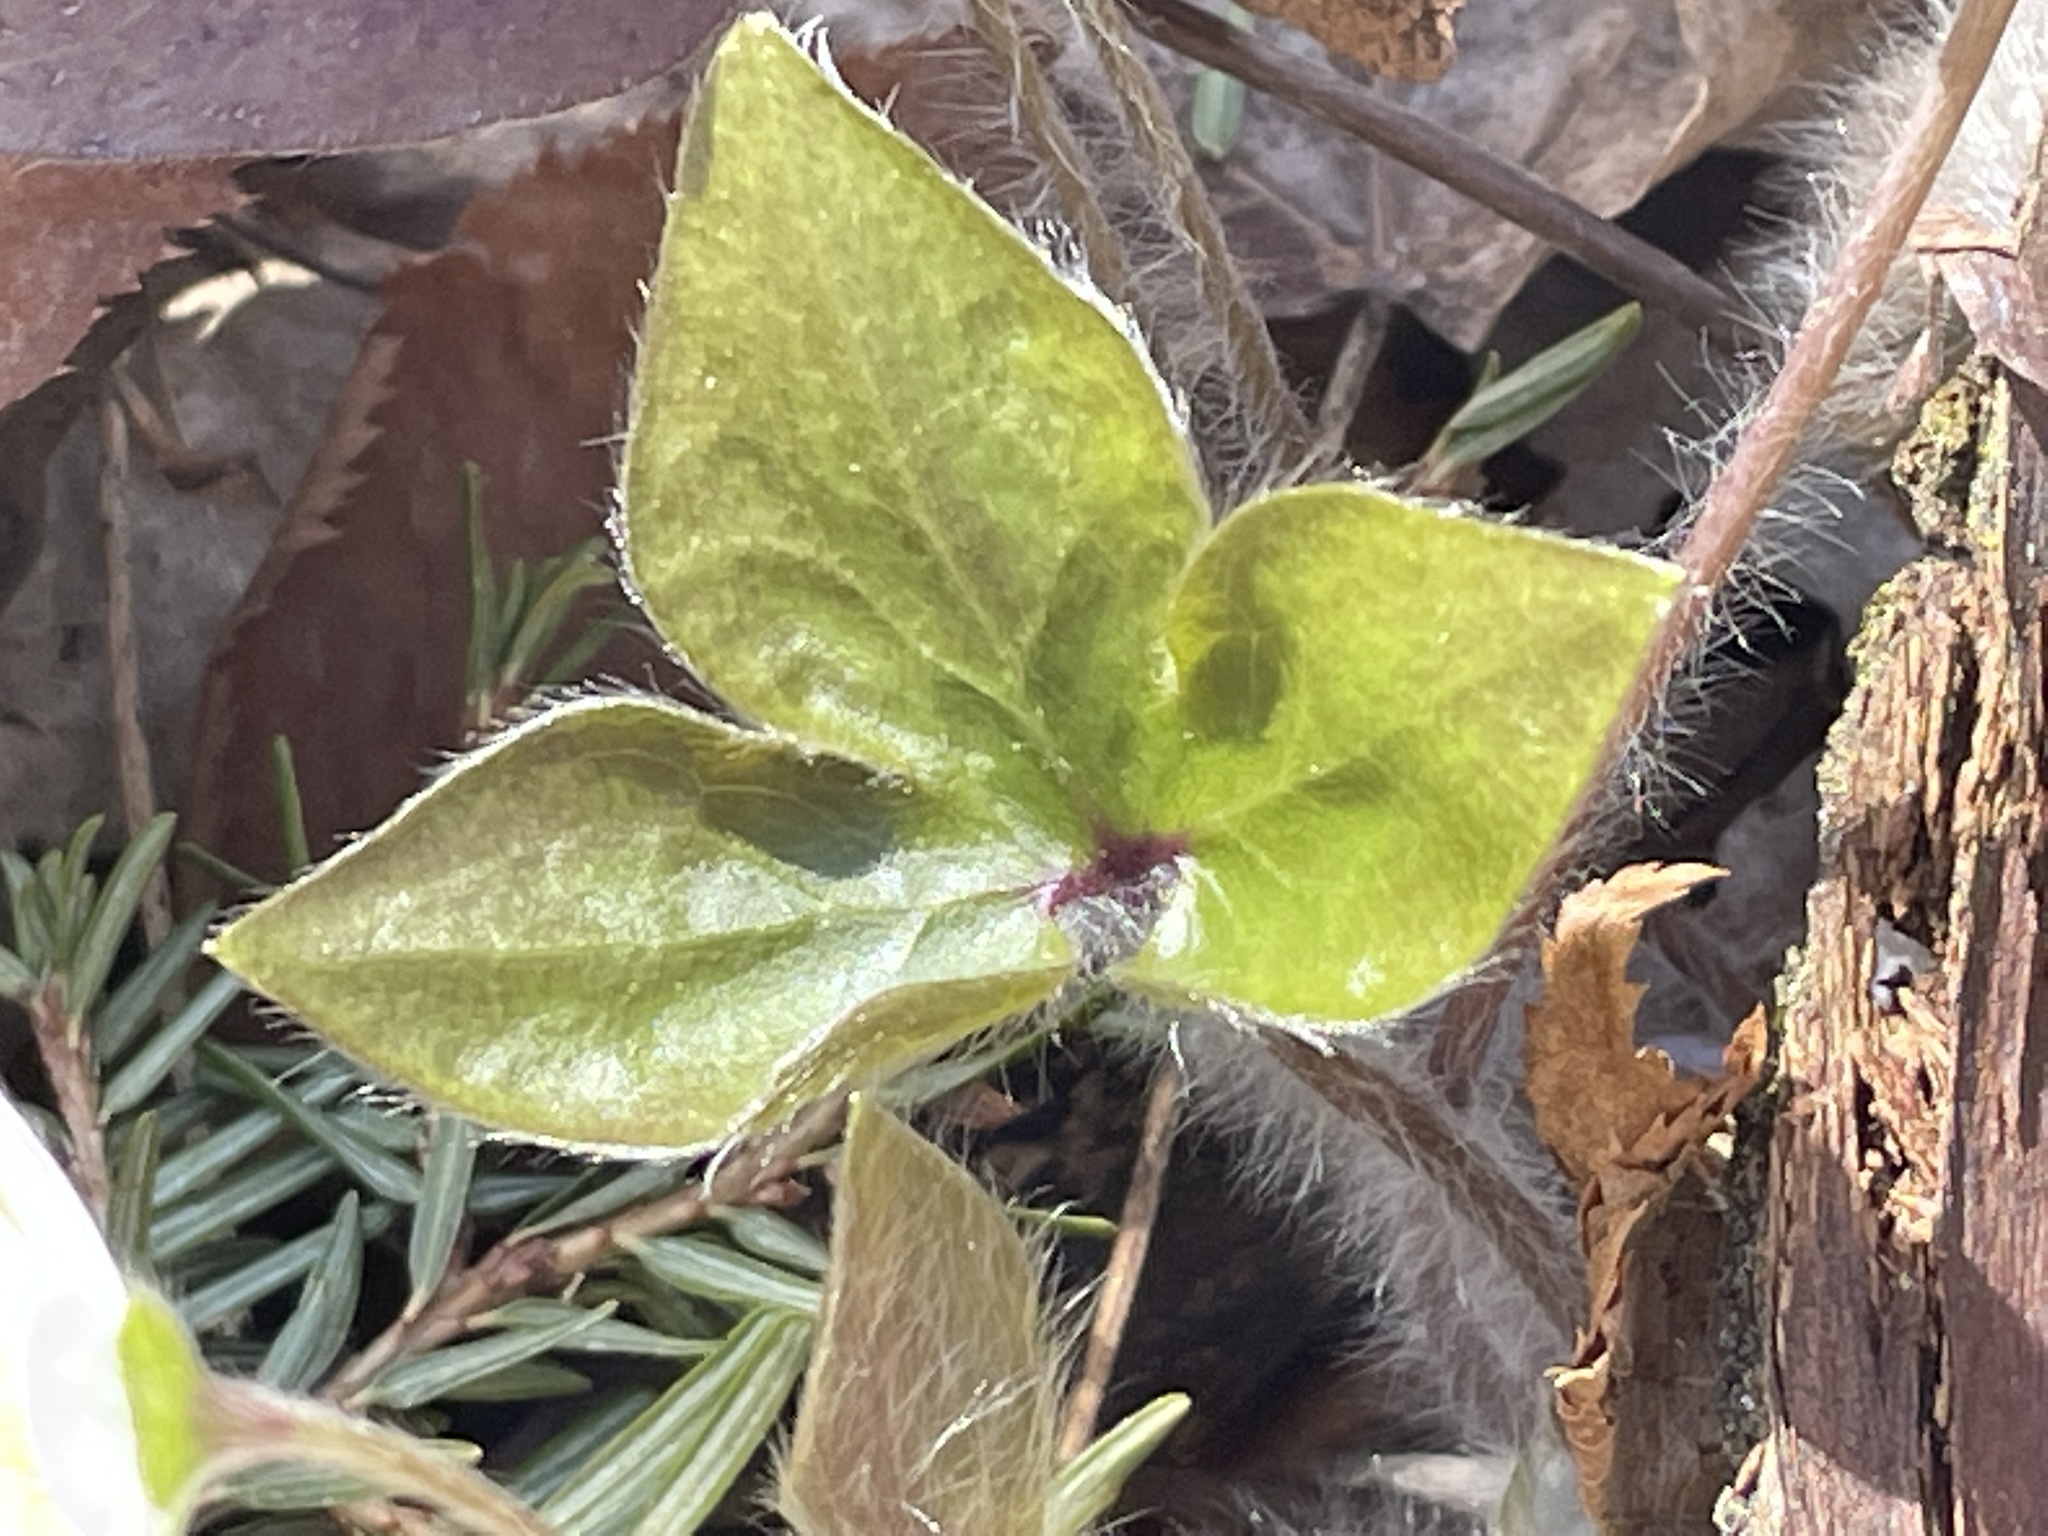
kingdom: Plantae
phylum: Tracheophyta
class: Magnoliopsida
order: Ranunculales
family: Ranunculaceae
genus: Hepatica
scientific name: Hepatica acutiloba
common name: Sharp-lobed hepatica
